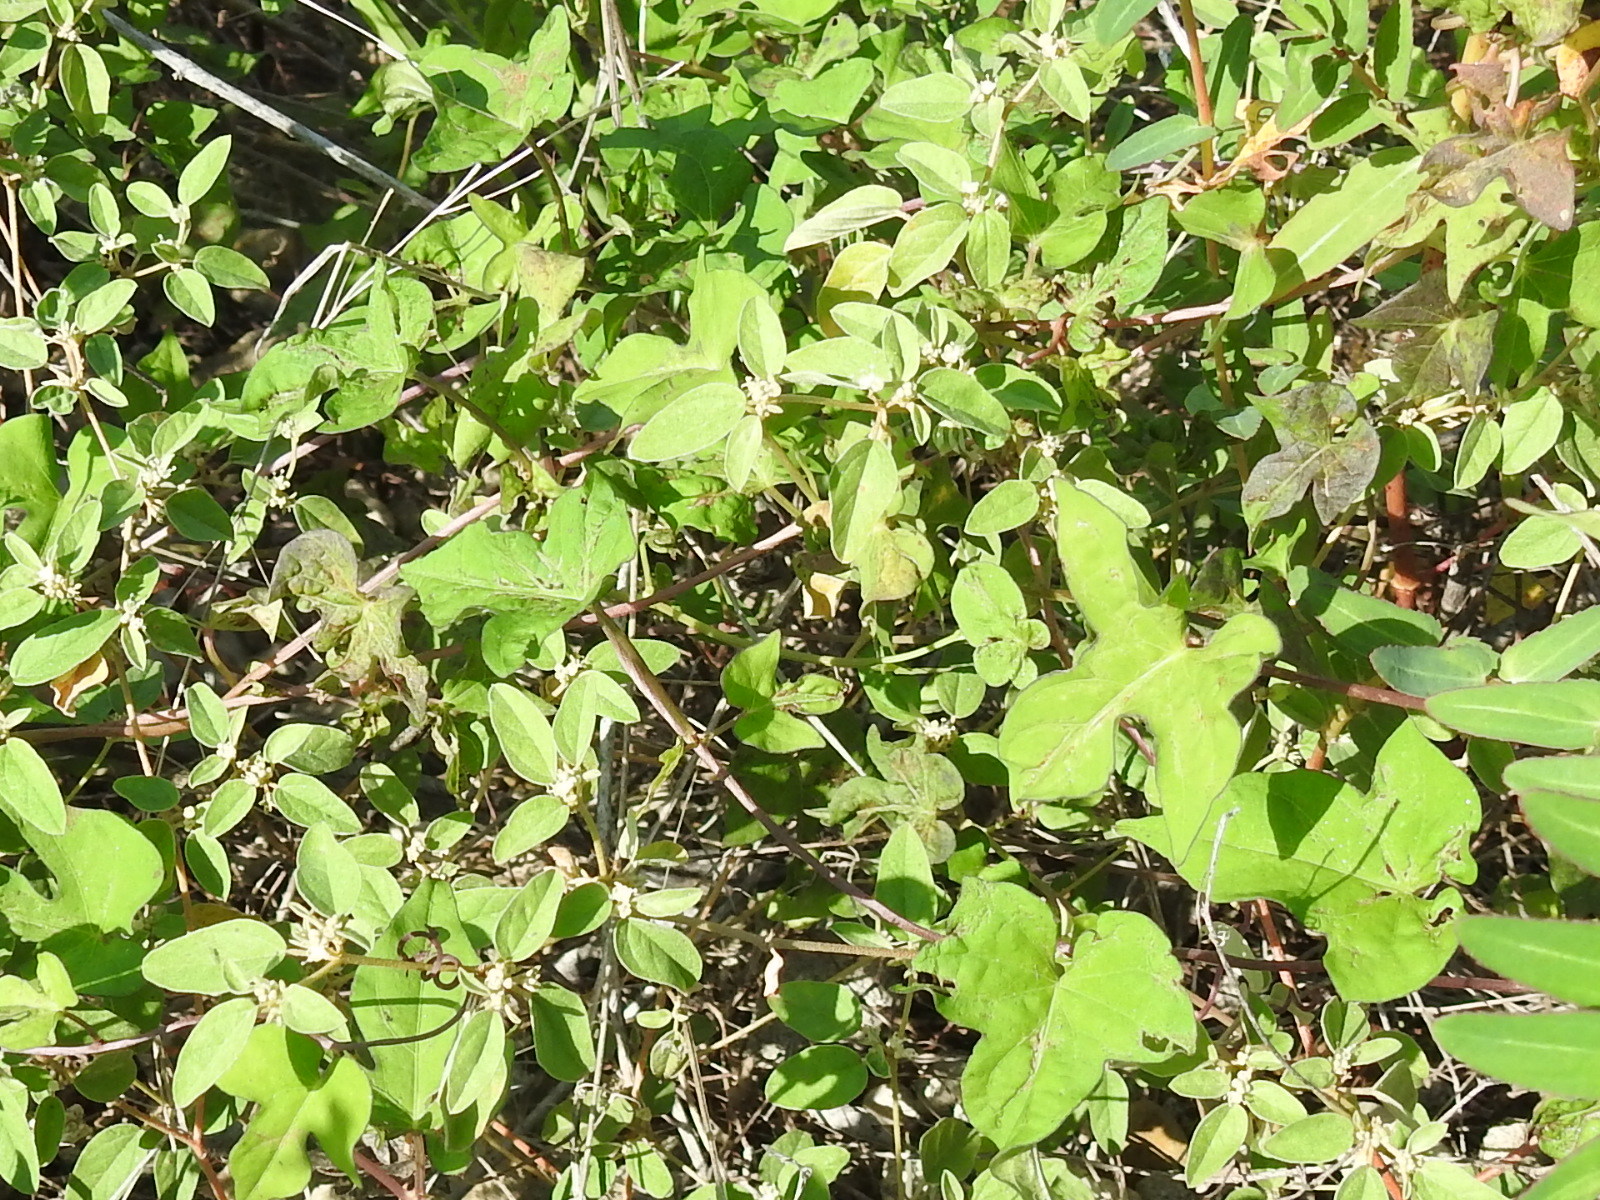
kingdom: Plantae
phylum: Tracheophyta
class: Magnoliopsida
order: Malpighiales
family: Euphorbiaceae
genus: Croton
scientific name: Croton monanthogynus
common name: One-seed croton
